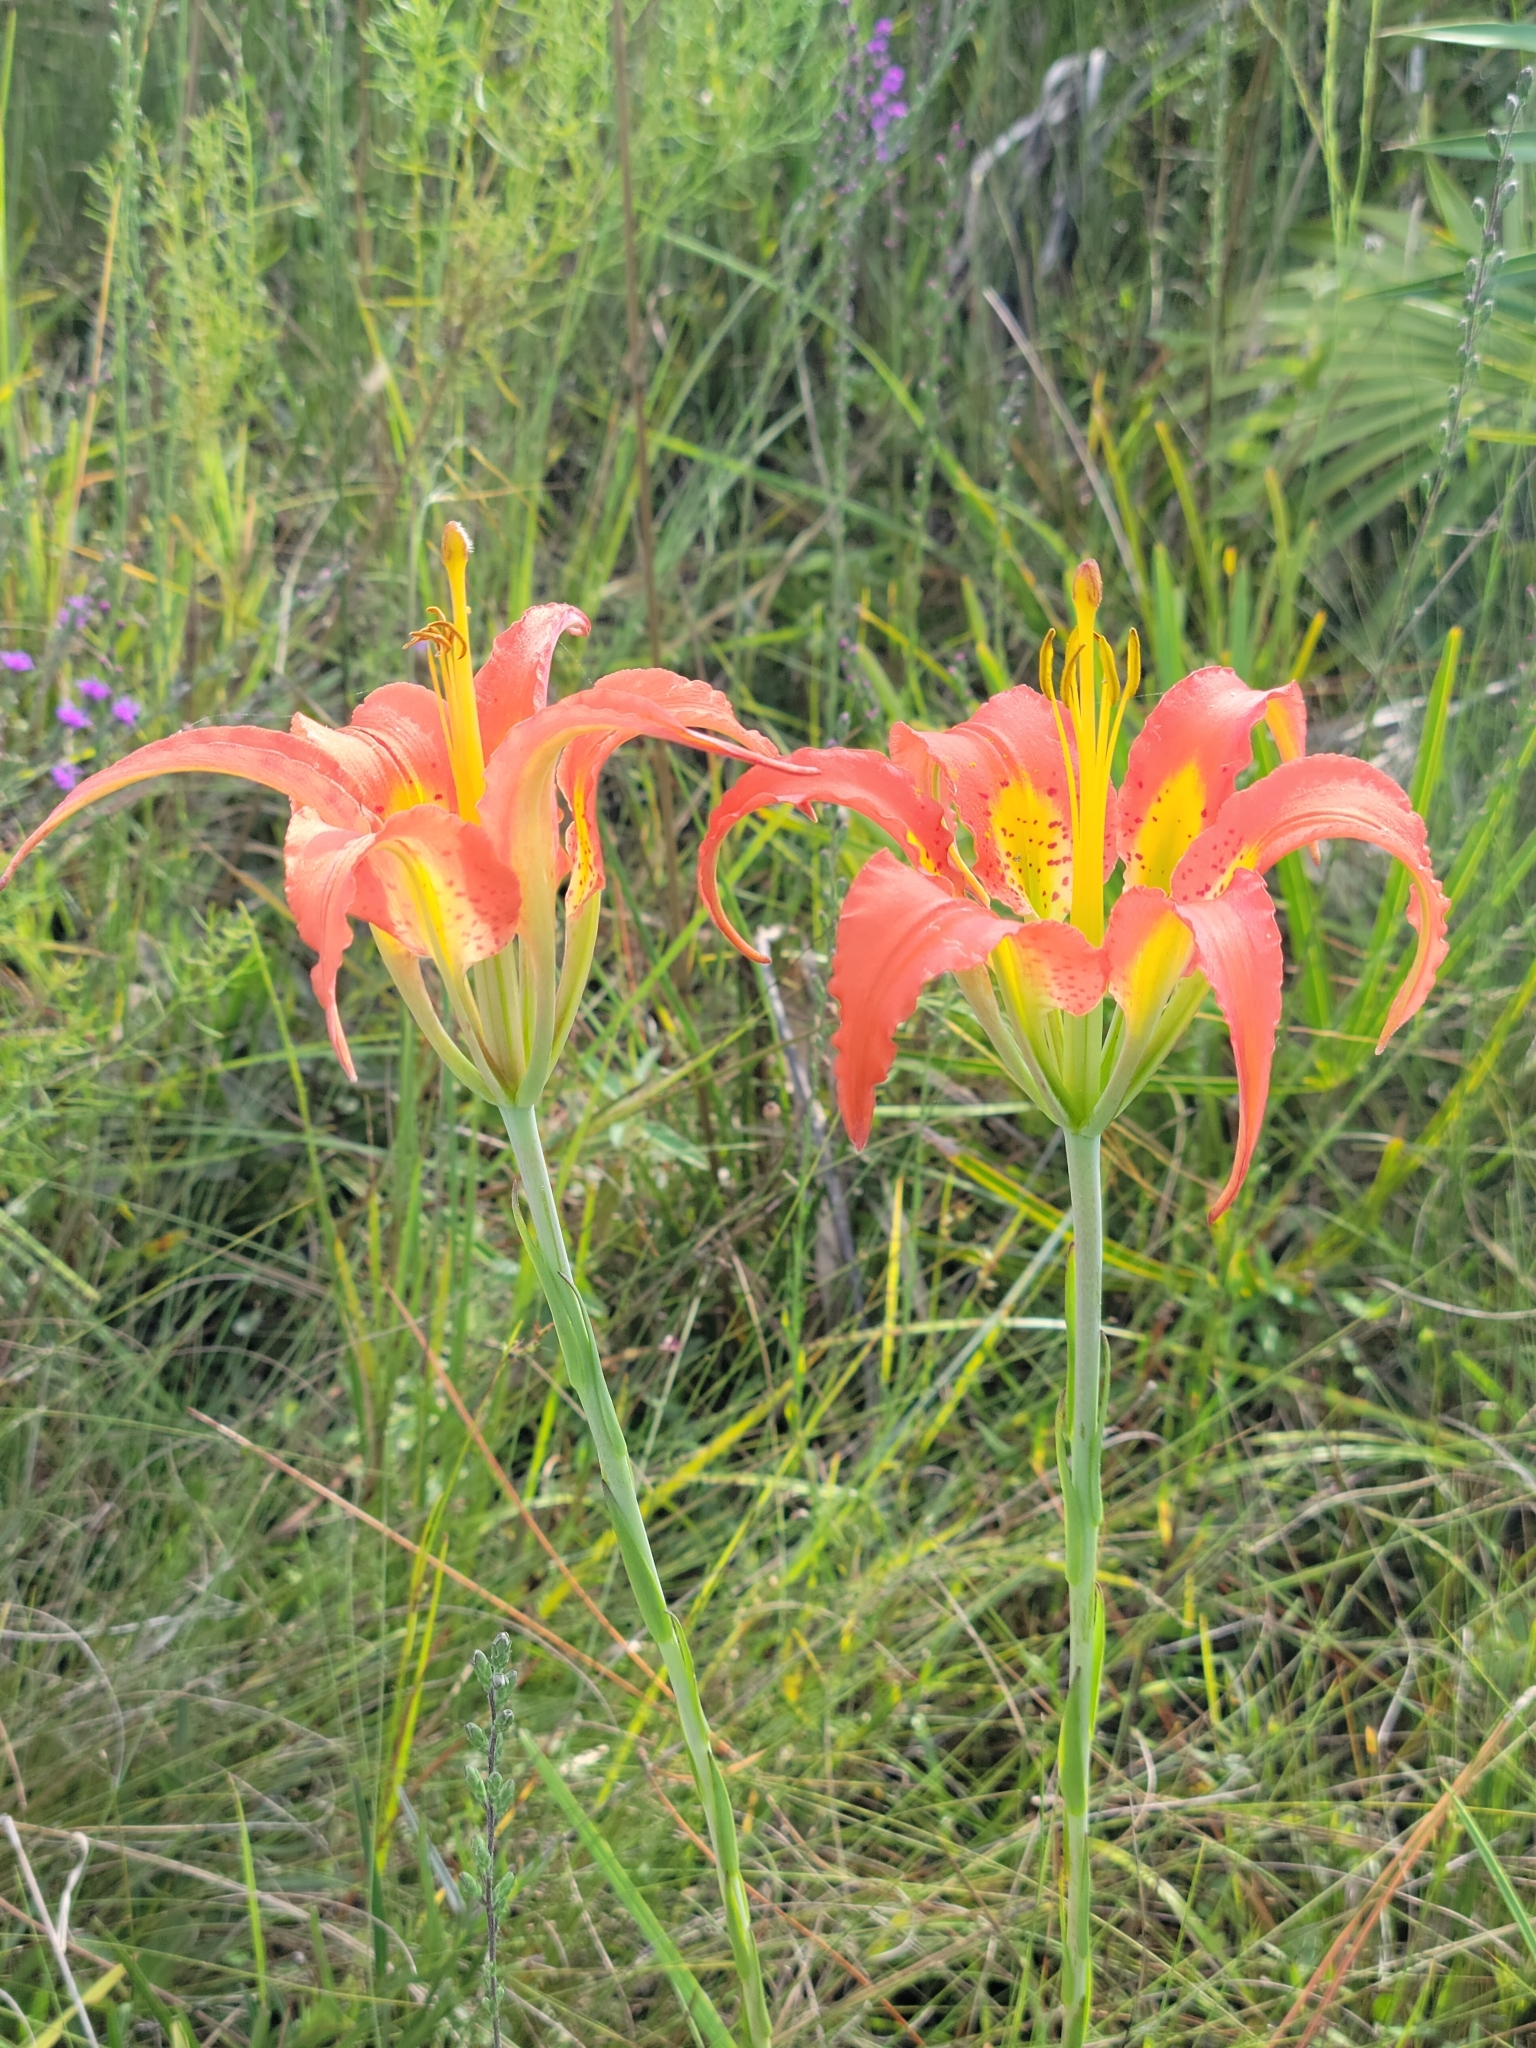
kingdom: Plantae
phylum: Tracheophyta
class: Liliopsida
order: Liliales
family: Liliaceae
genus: Lilium
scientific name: Lilium catesbaei
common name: Catesby's lily
